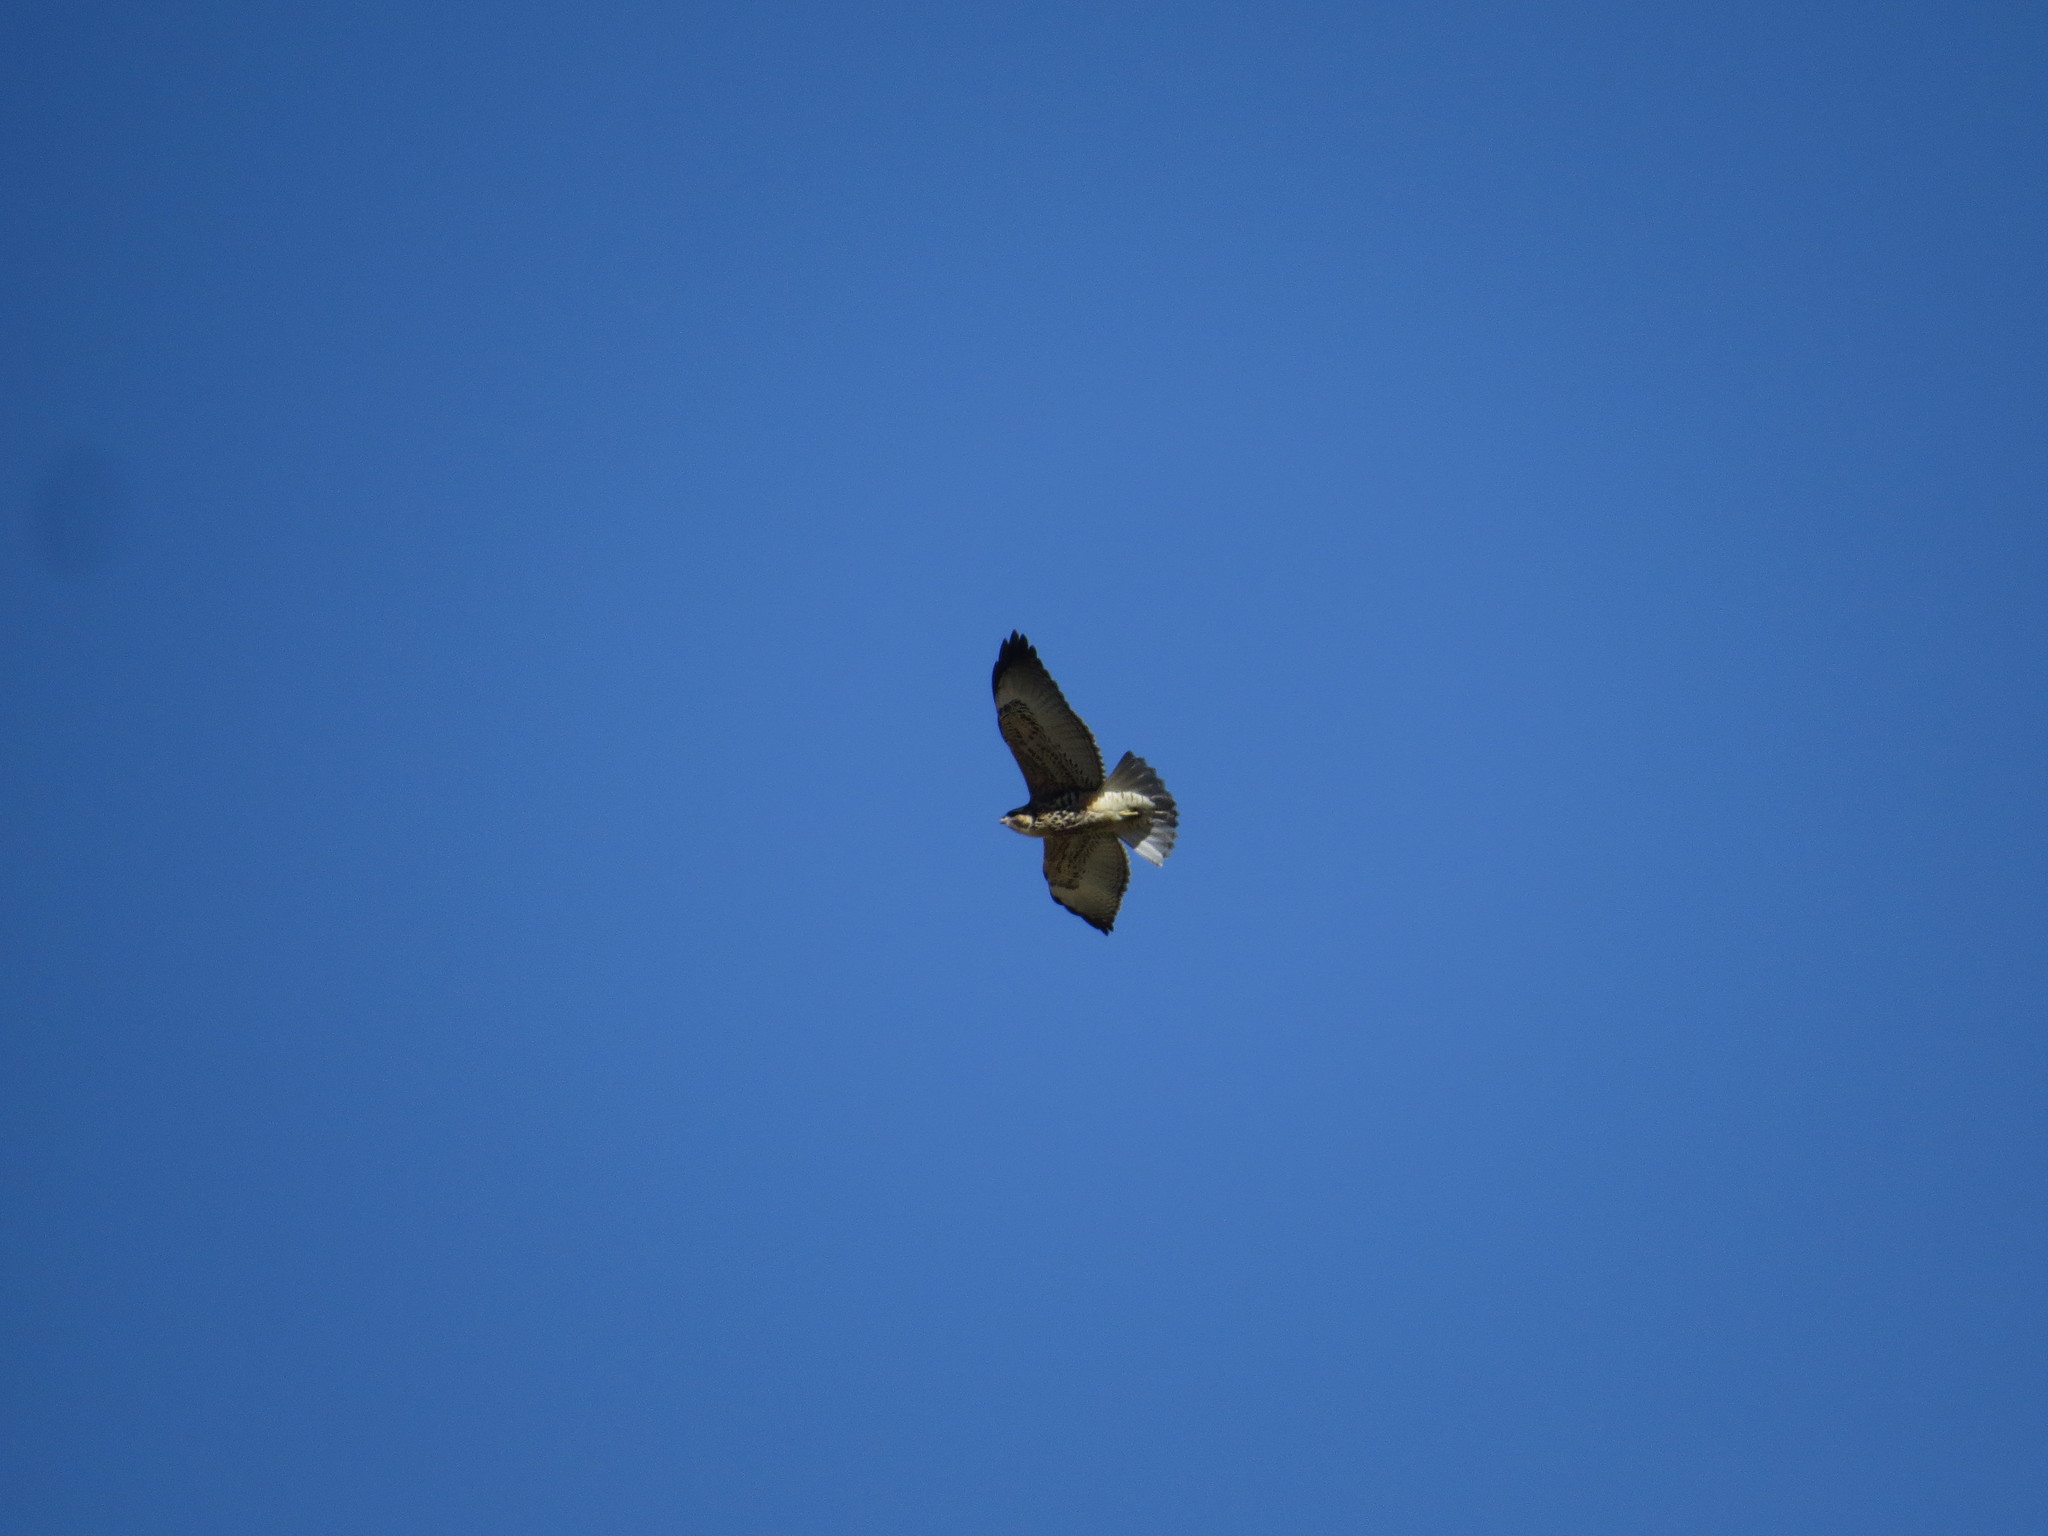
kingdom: Animalia
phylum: Chordata
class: Aves
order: Accipitriformes
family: Accipitridae
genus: Buteo
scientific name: Buteo polyosoma
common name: Variable hawk
